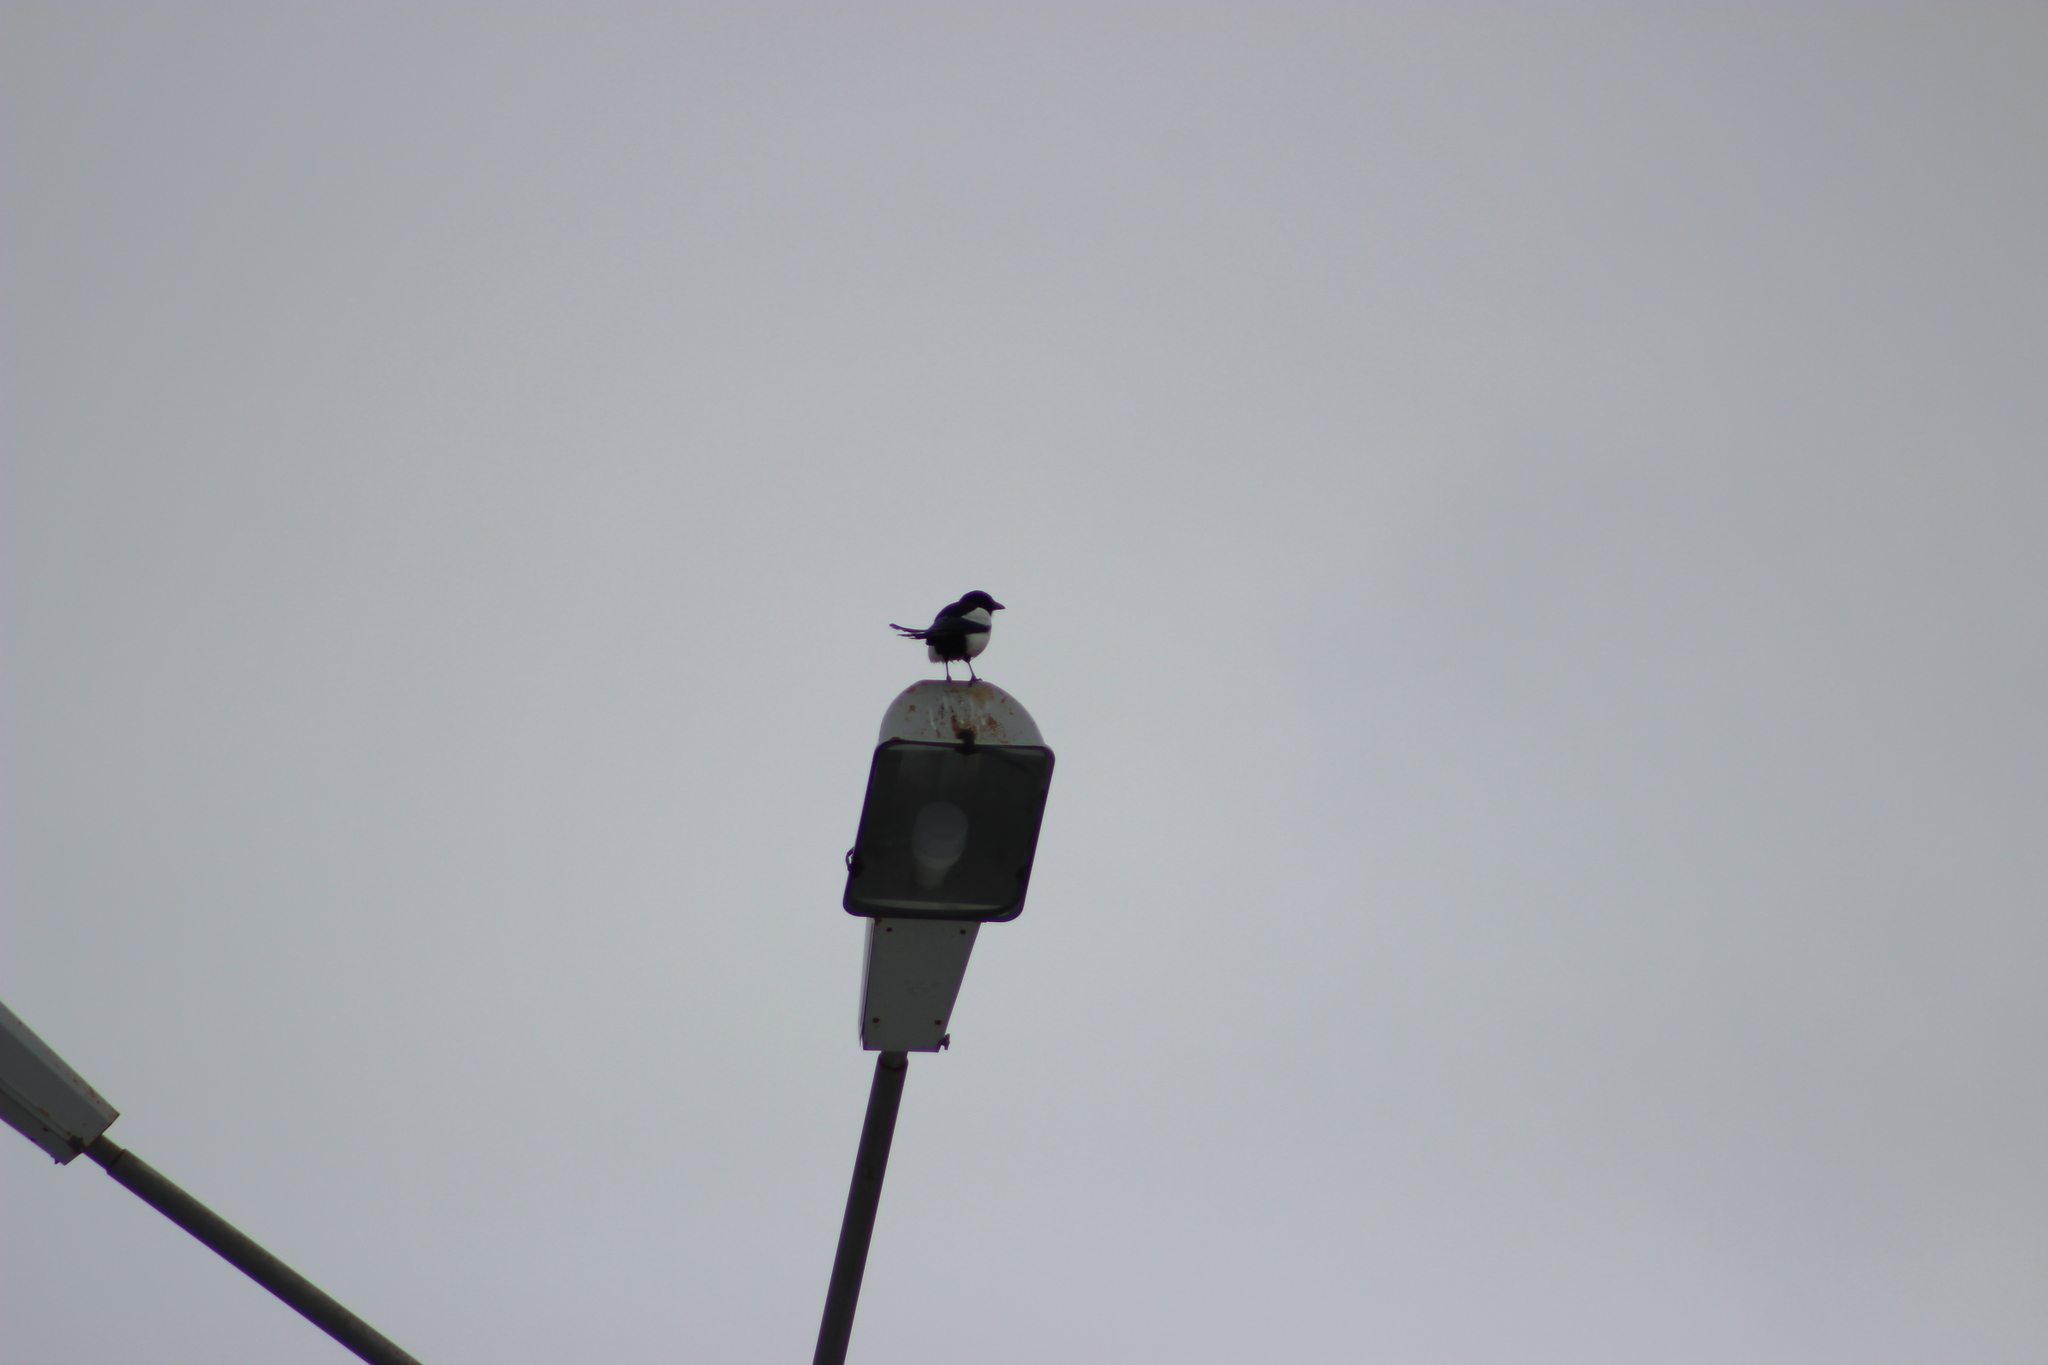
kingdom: Animalia
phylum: Chordata
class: Aves
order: Passeriformes
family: Corvidae
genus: Pica
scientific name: Pica pica
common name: Eurasian magpie
